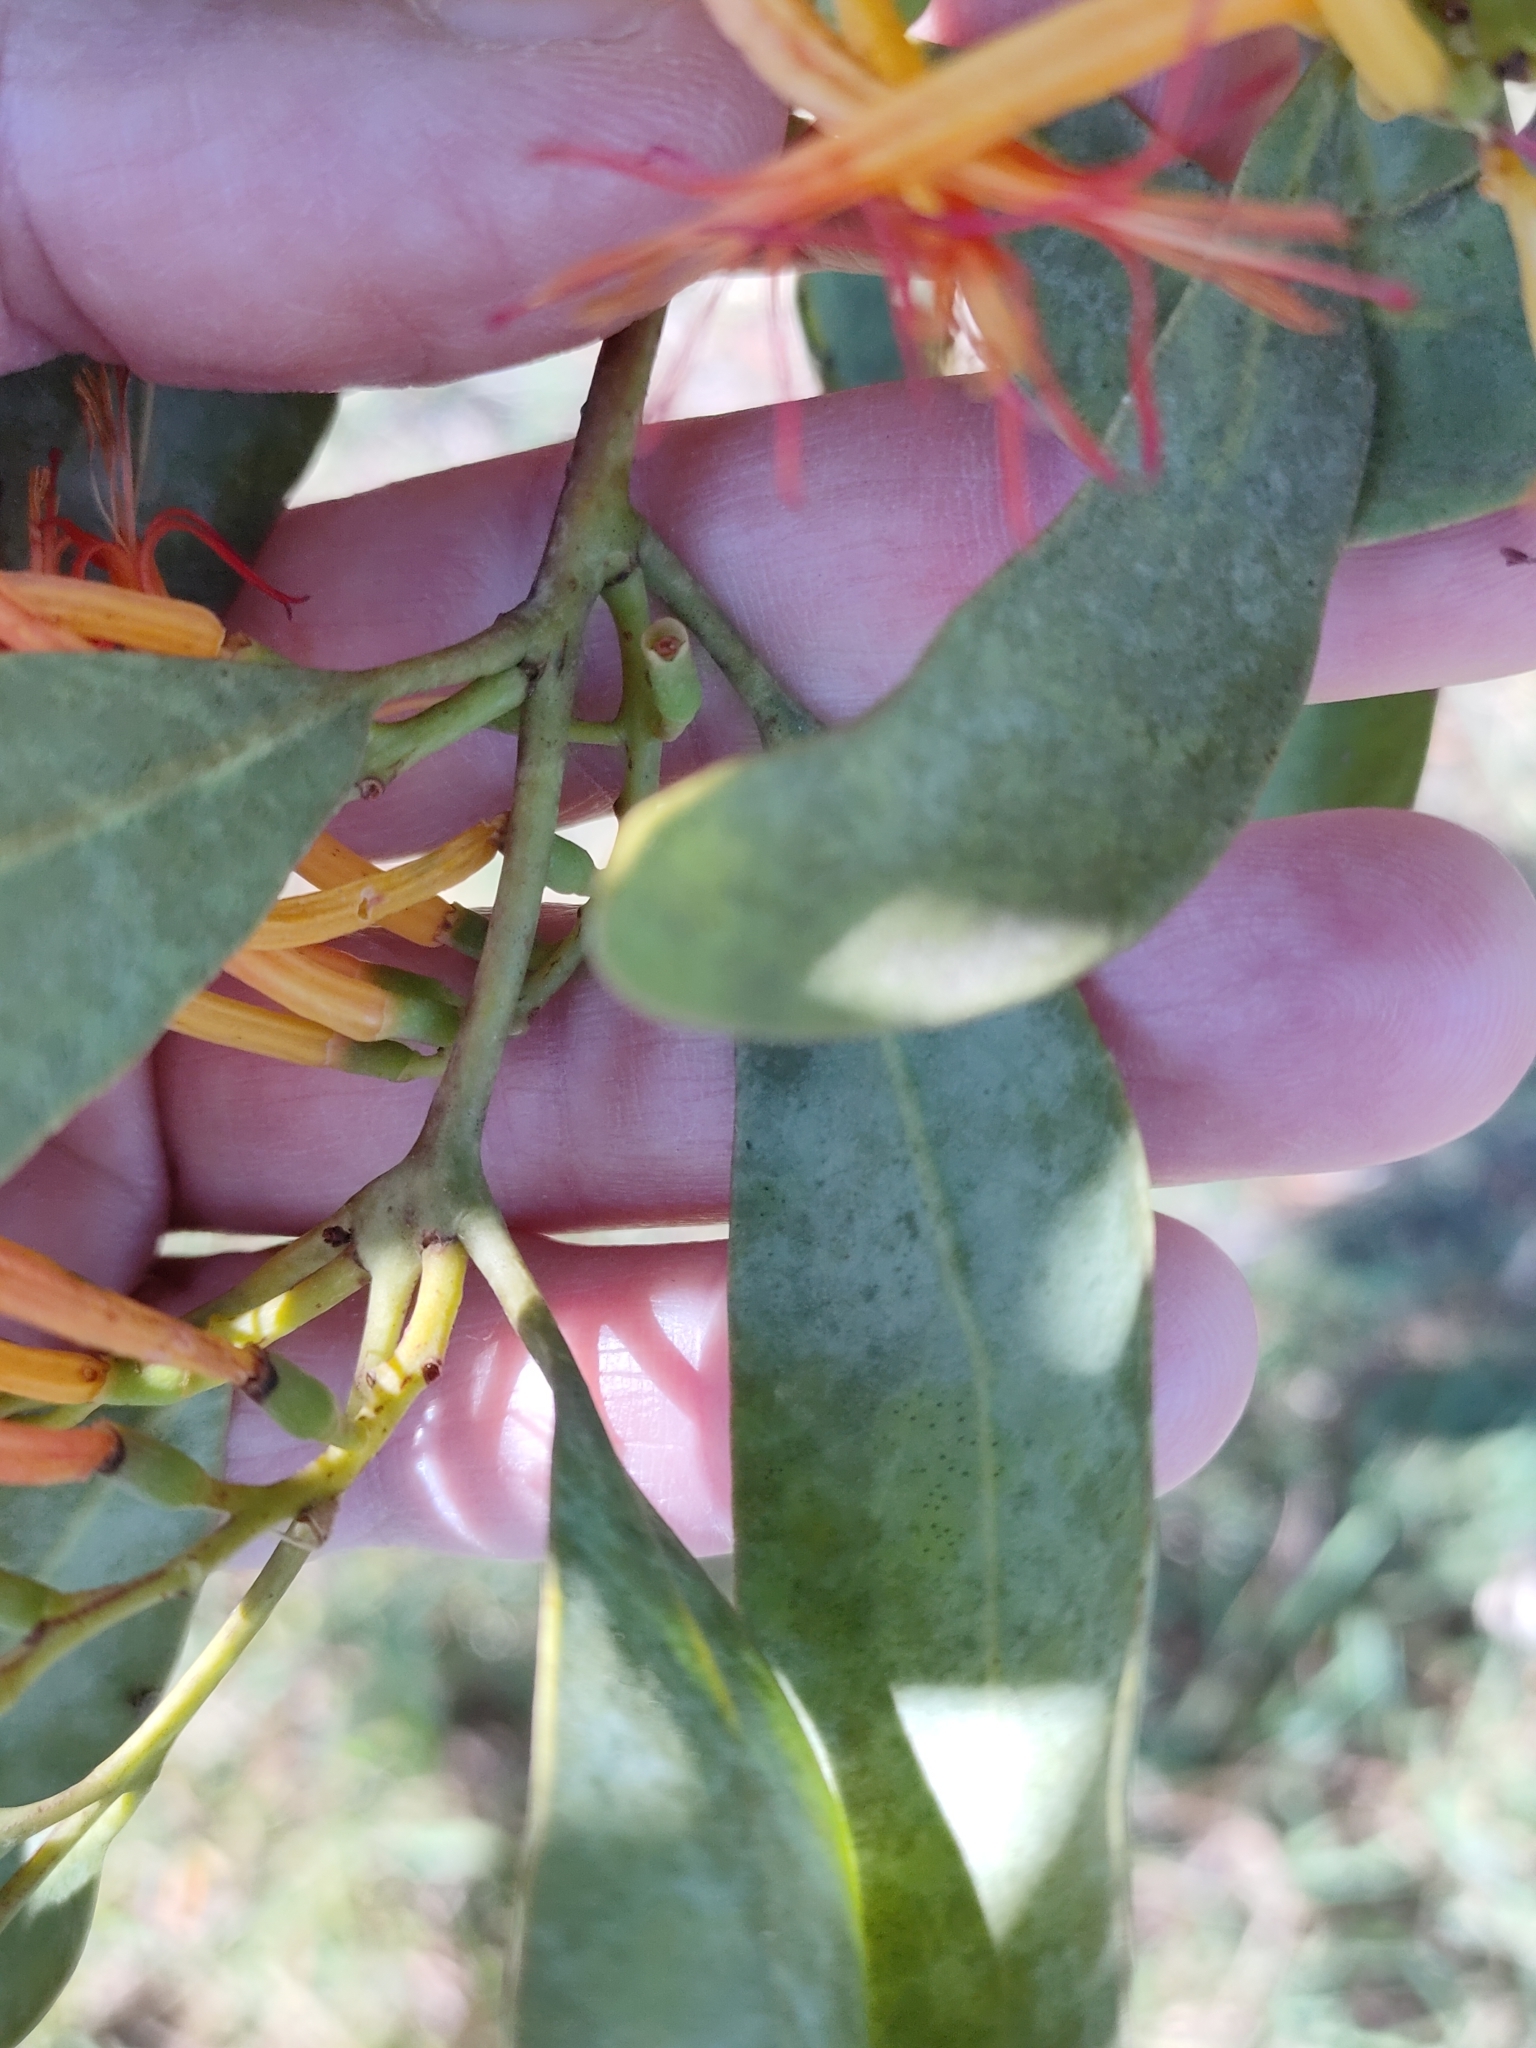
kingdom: Plantae
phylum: Tracheophyta
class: Magnoliopsida
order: Santalales
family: Loranthaceae
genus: Dendrophthoe
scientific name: Dendrophthoe glabrescens
